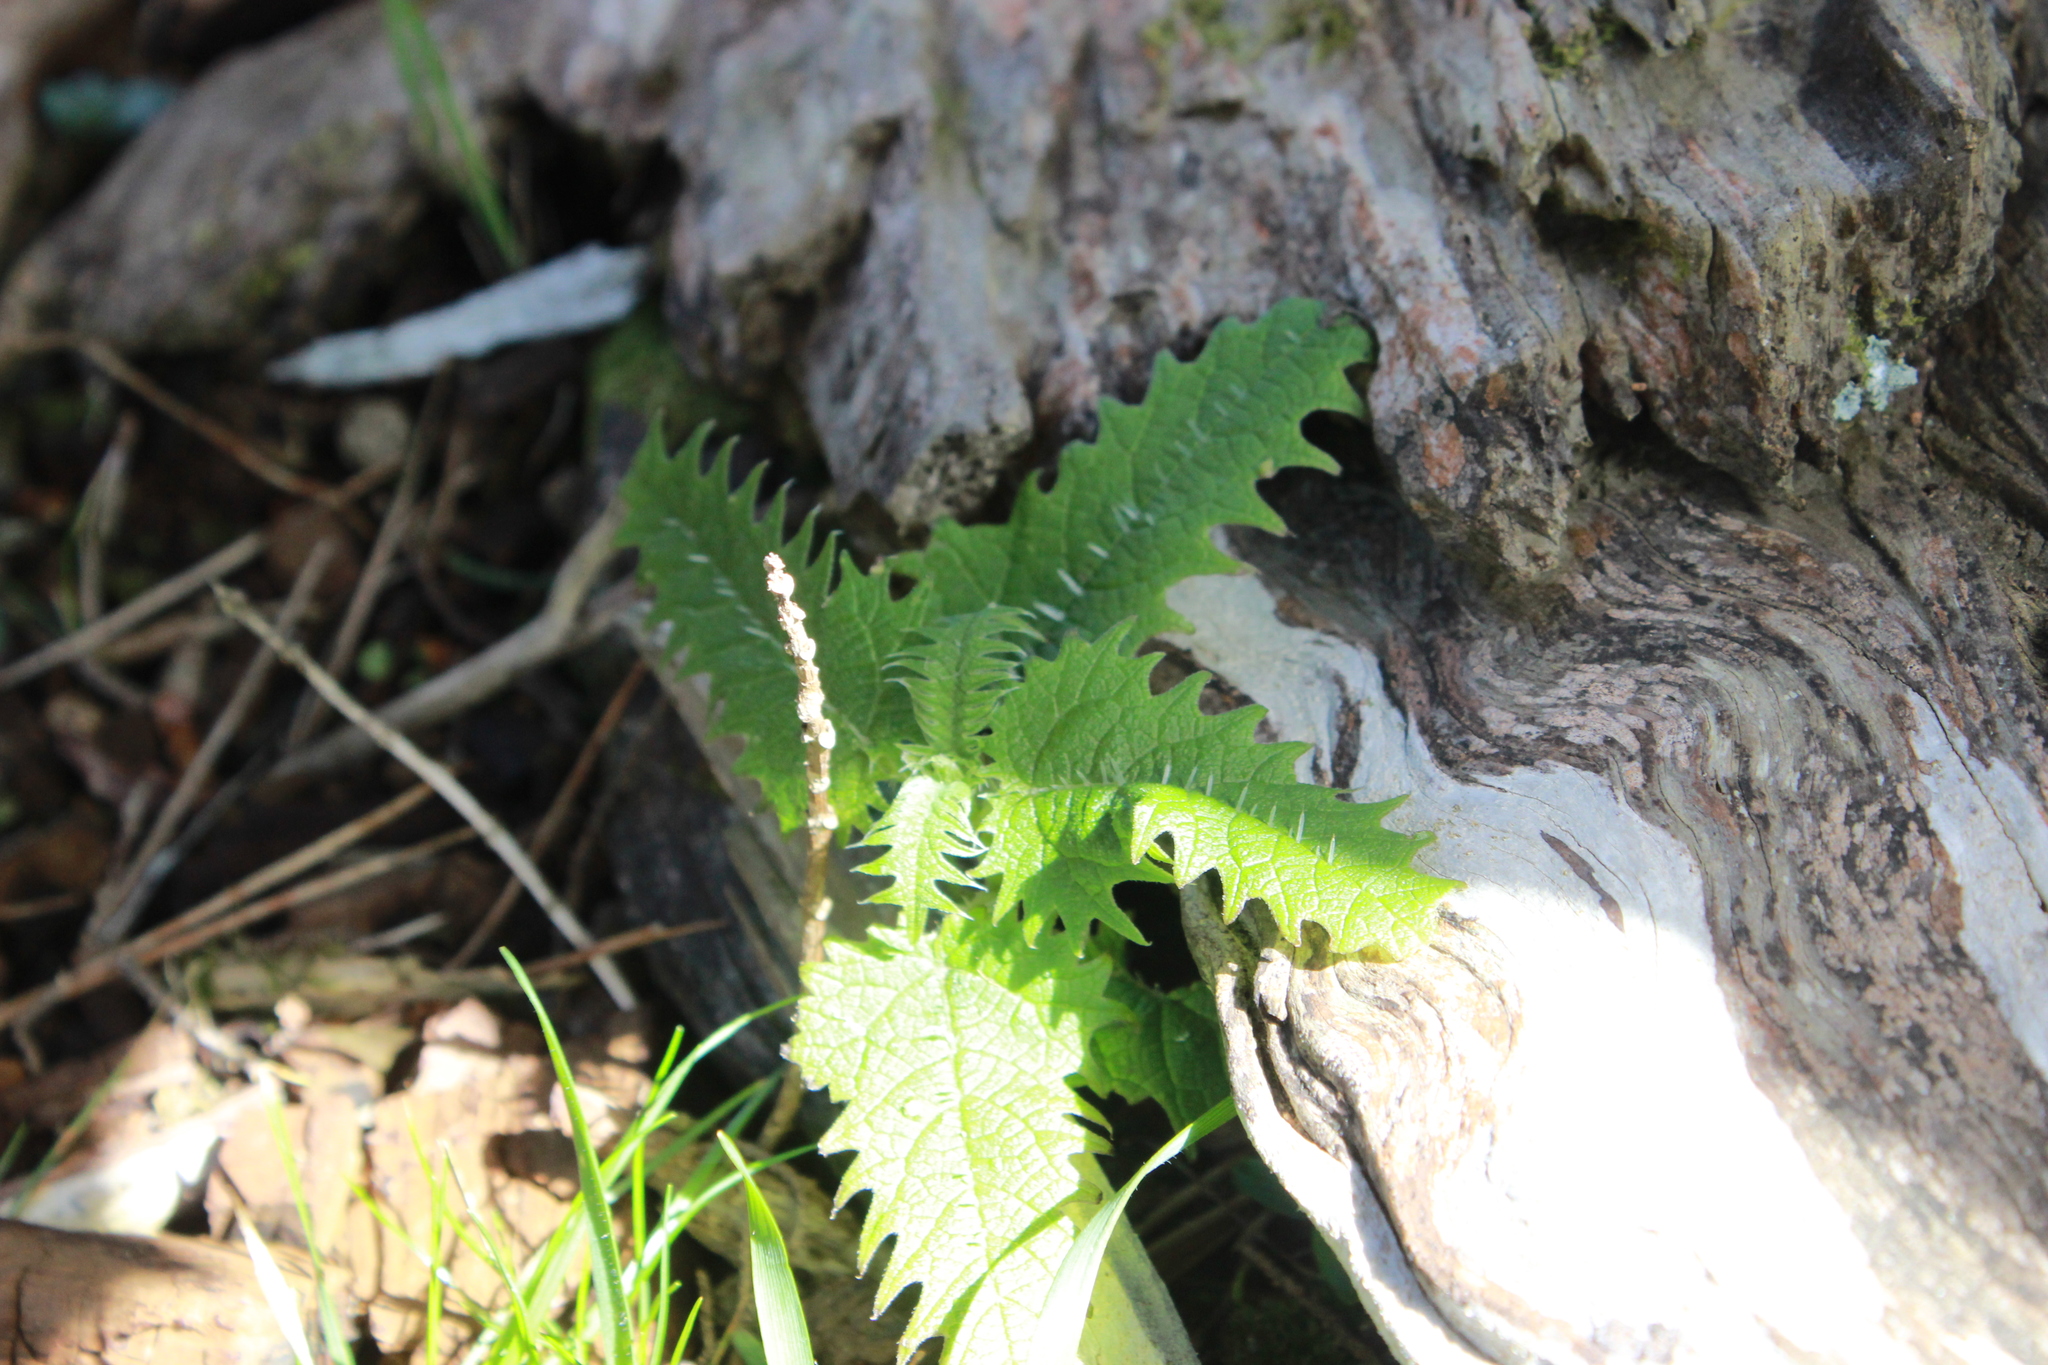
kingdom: Plantae
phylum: Tracheophyta
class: Magnoliopsida
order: Rosales
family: Urticaceae
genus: Urtica
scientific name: Urtica ferox
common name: Tree nettle
